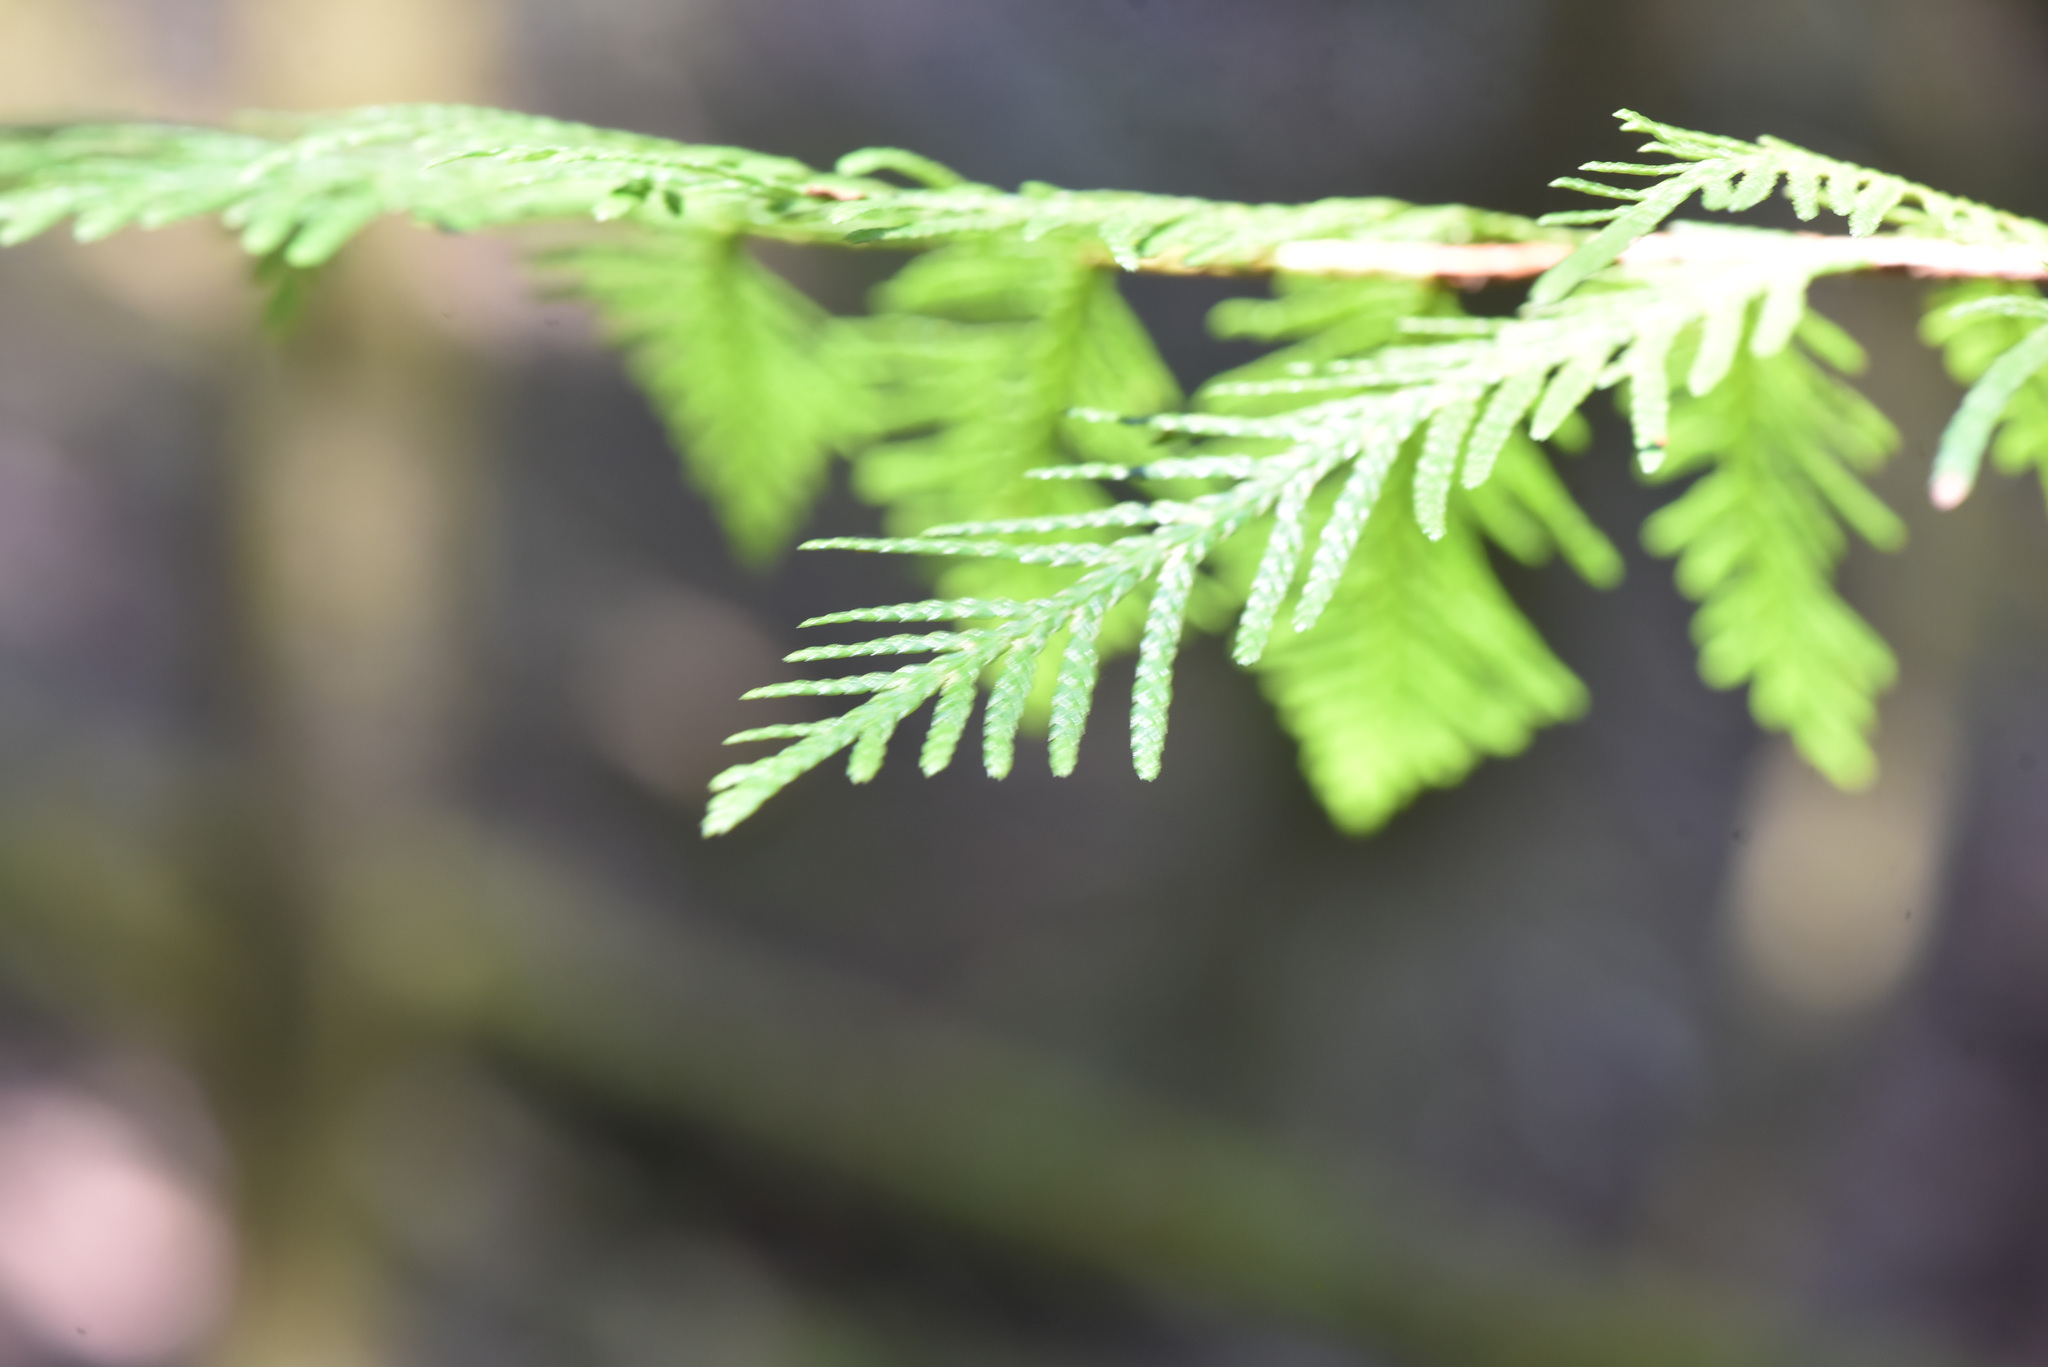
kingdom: Plantae
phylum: Tracheophyta
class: Pinopsida
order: Pinales
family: Cupressaceae
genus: Thuja
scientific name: Thuja plicata
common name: Western red-cedar
